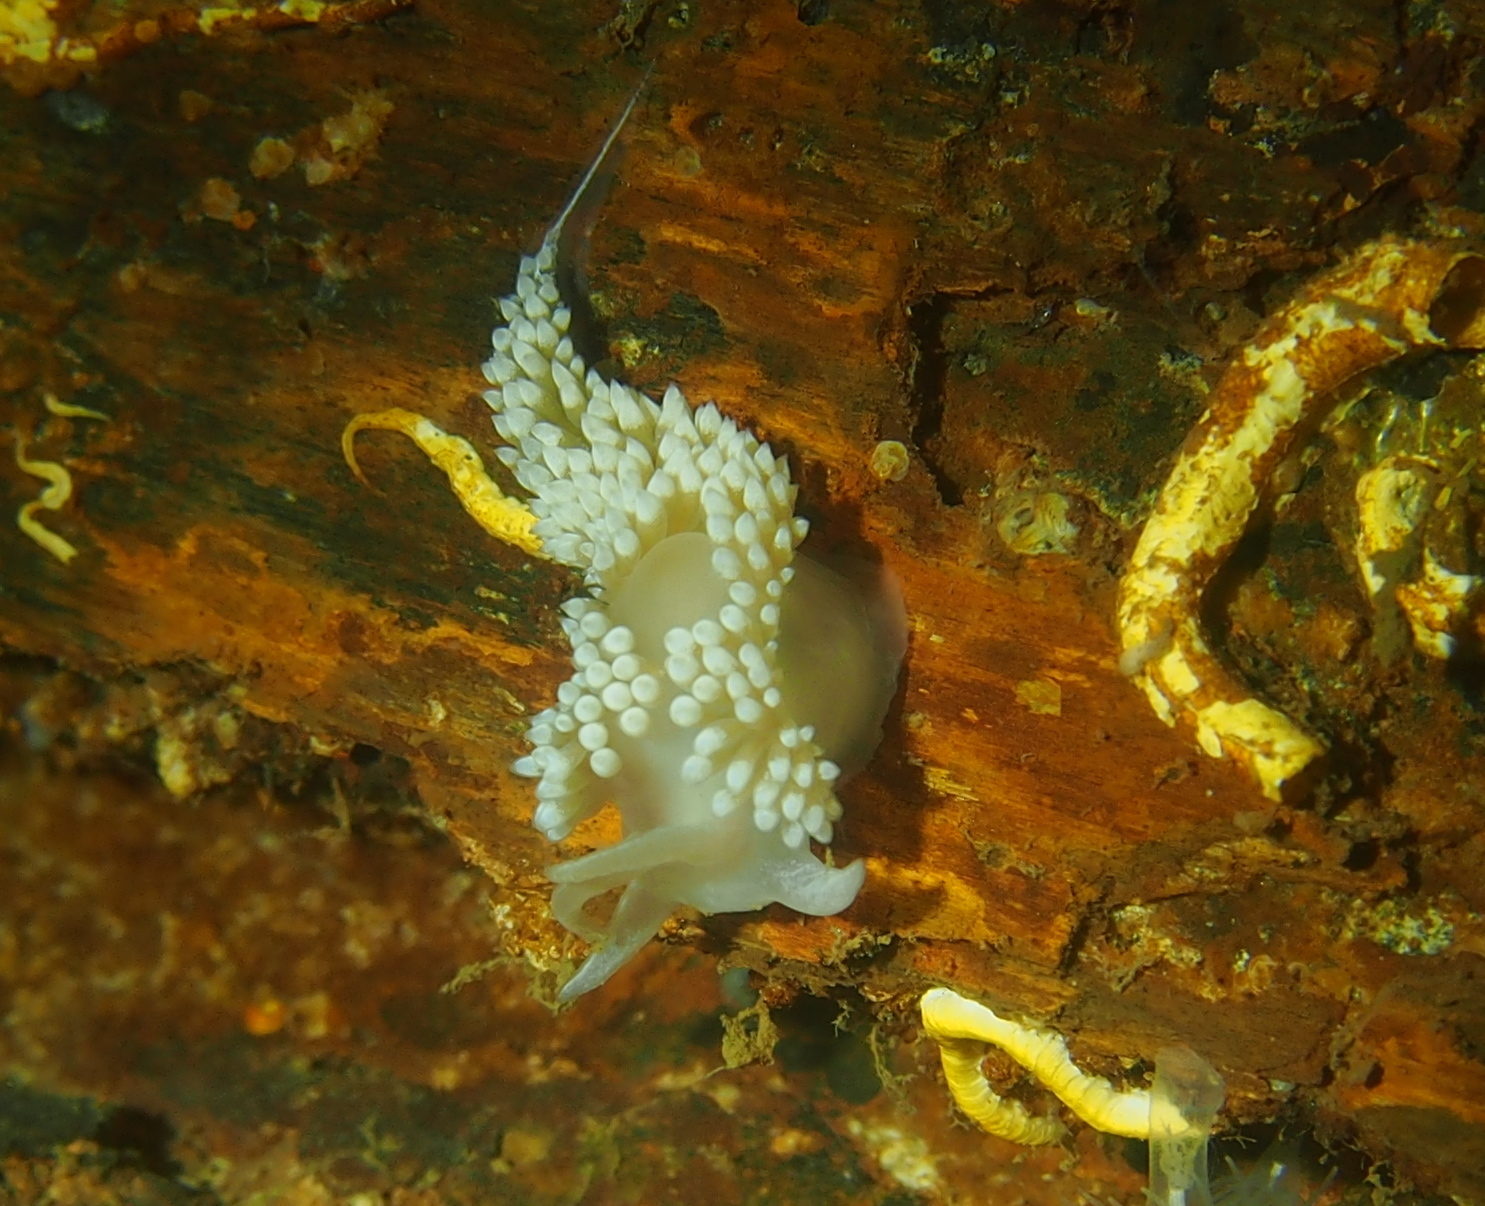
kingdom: Animalia
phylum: Mollusca
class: Gastropoda
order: Nudibranchia
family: Coryphellidae
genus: Coryphella
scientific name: Coryphella verrucosa
